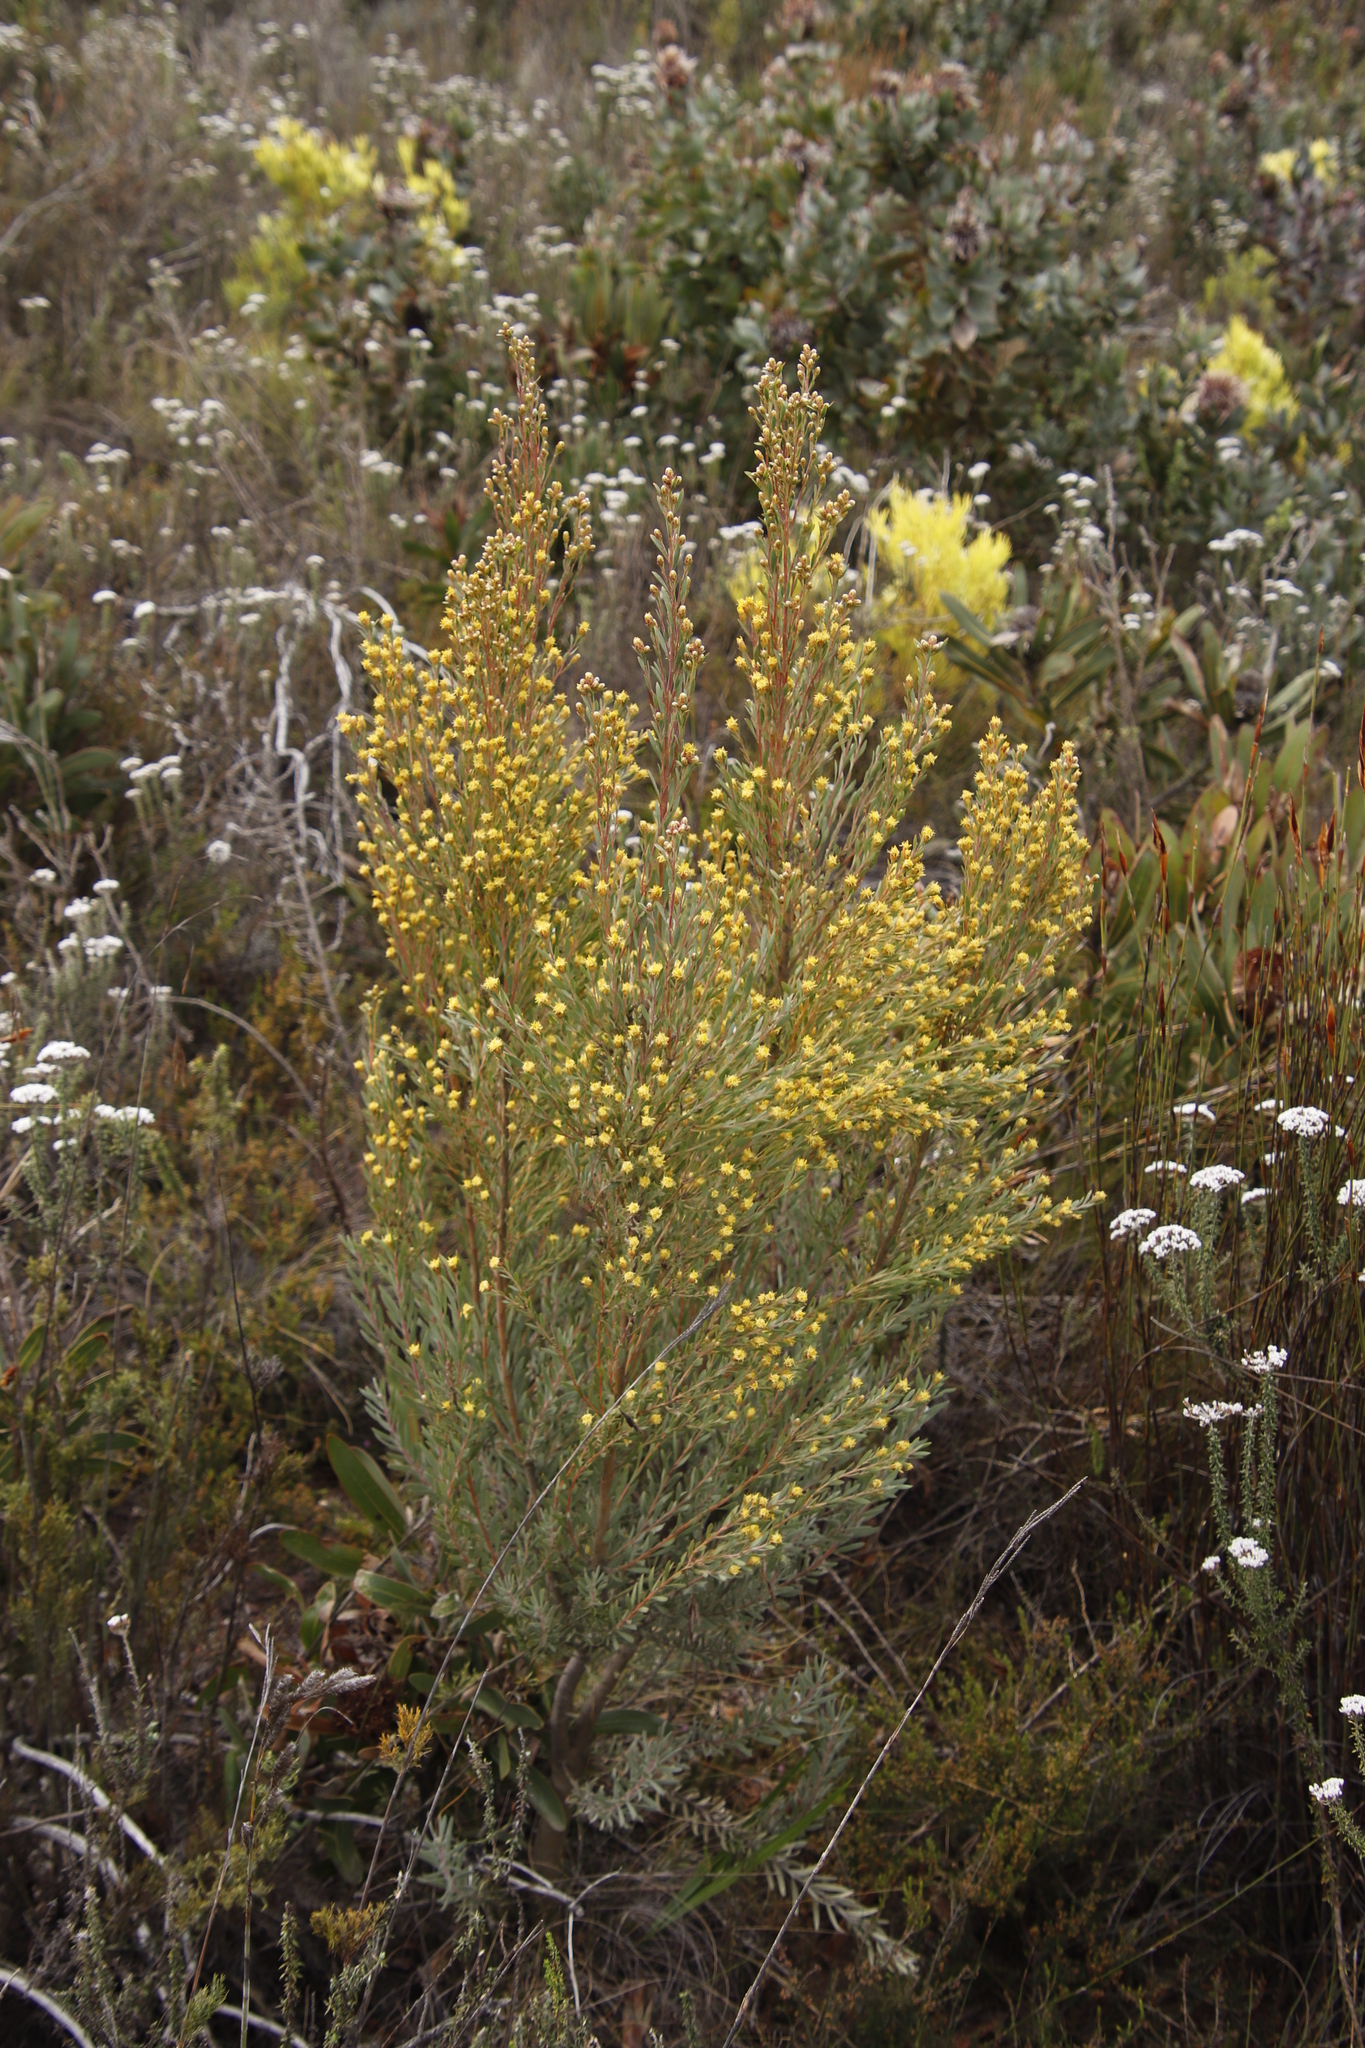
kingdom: Plantae
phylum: Tracheophyta
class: Magnoliopsida
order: Proteales
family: Proteaceae
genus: Leucadendron
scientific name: Leucadendron rubrum
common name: Spinning top
